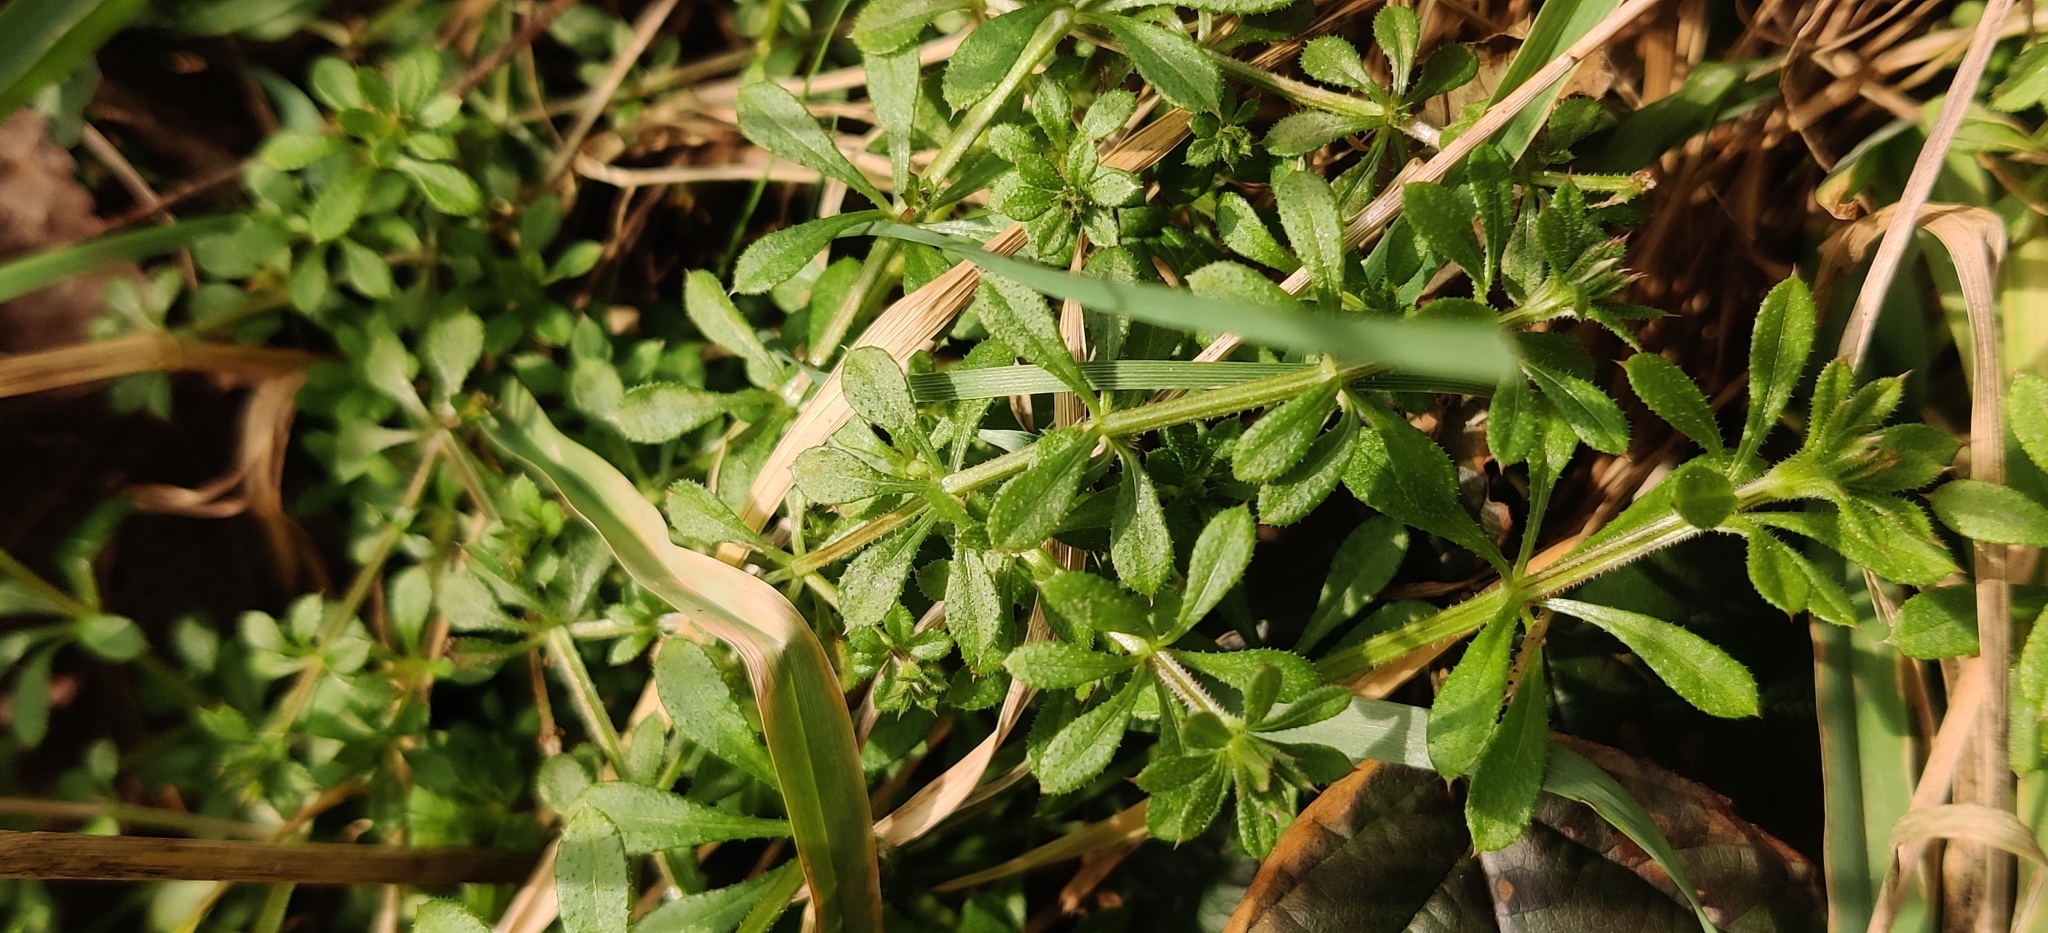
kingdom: Plantae
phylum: Tracheophyta
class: Magnoliopsida
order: Gentianales
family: Rubiaceae
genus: Galium
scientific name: Galium aparine
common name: Cleavers
